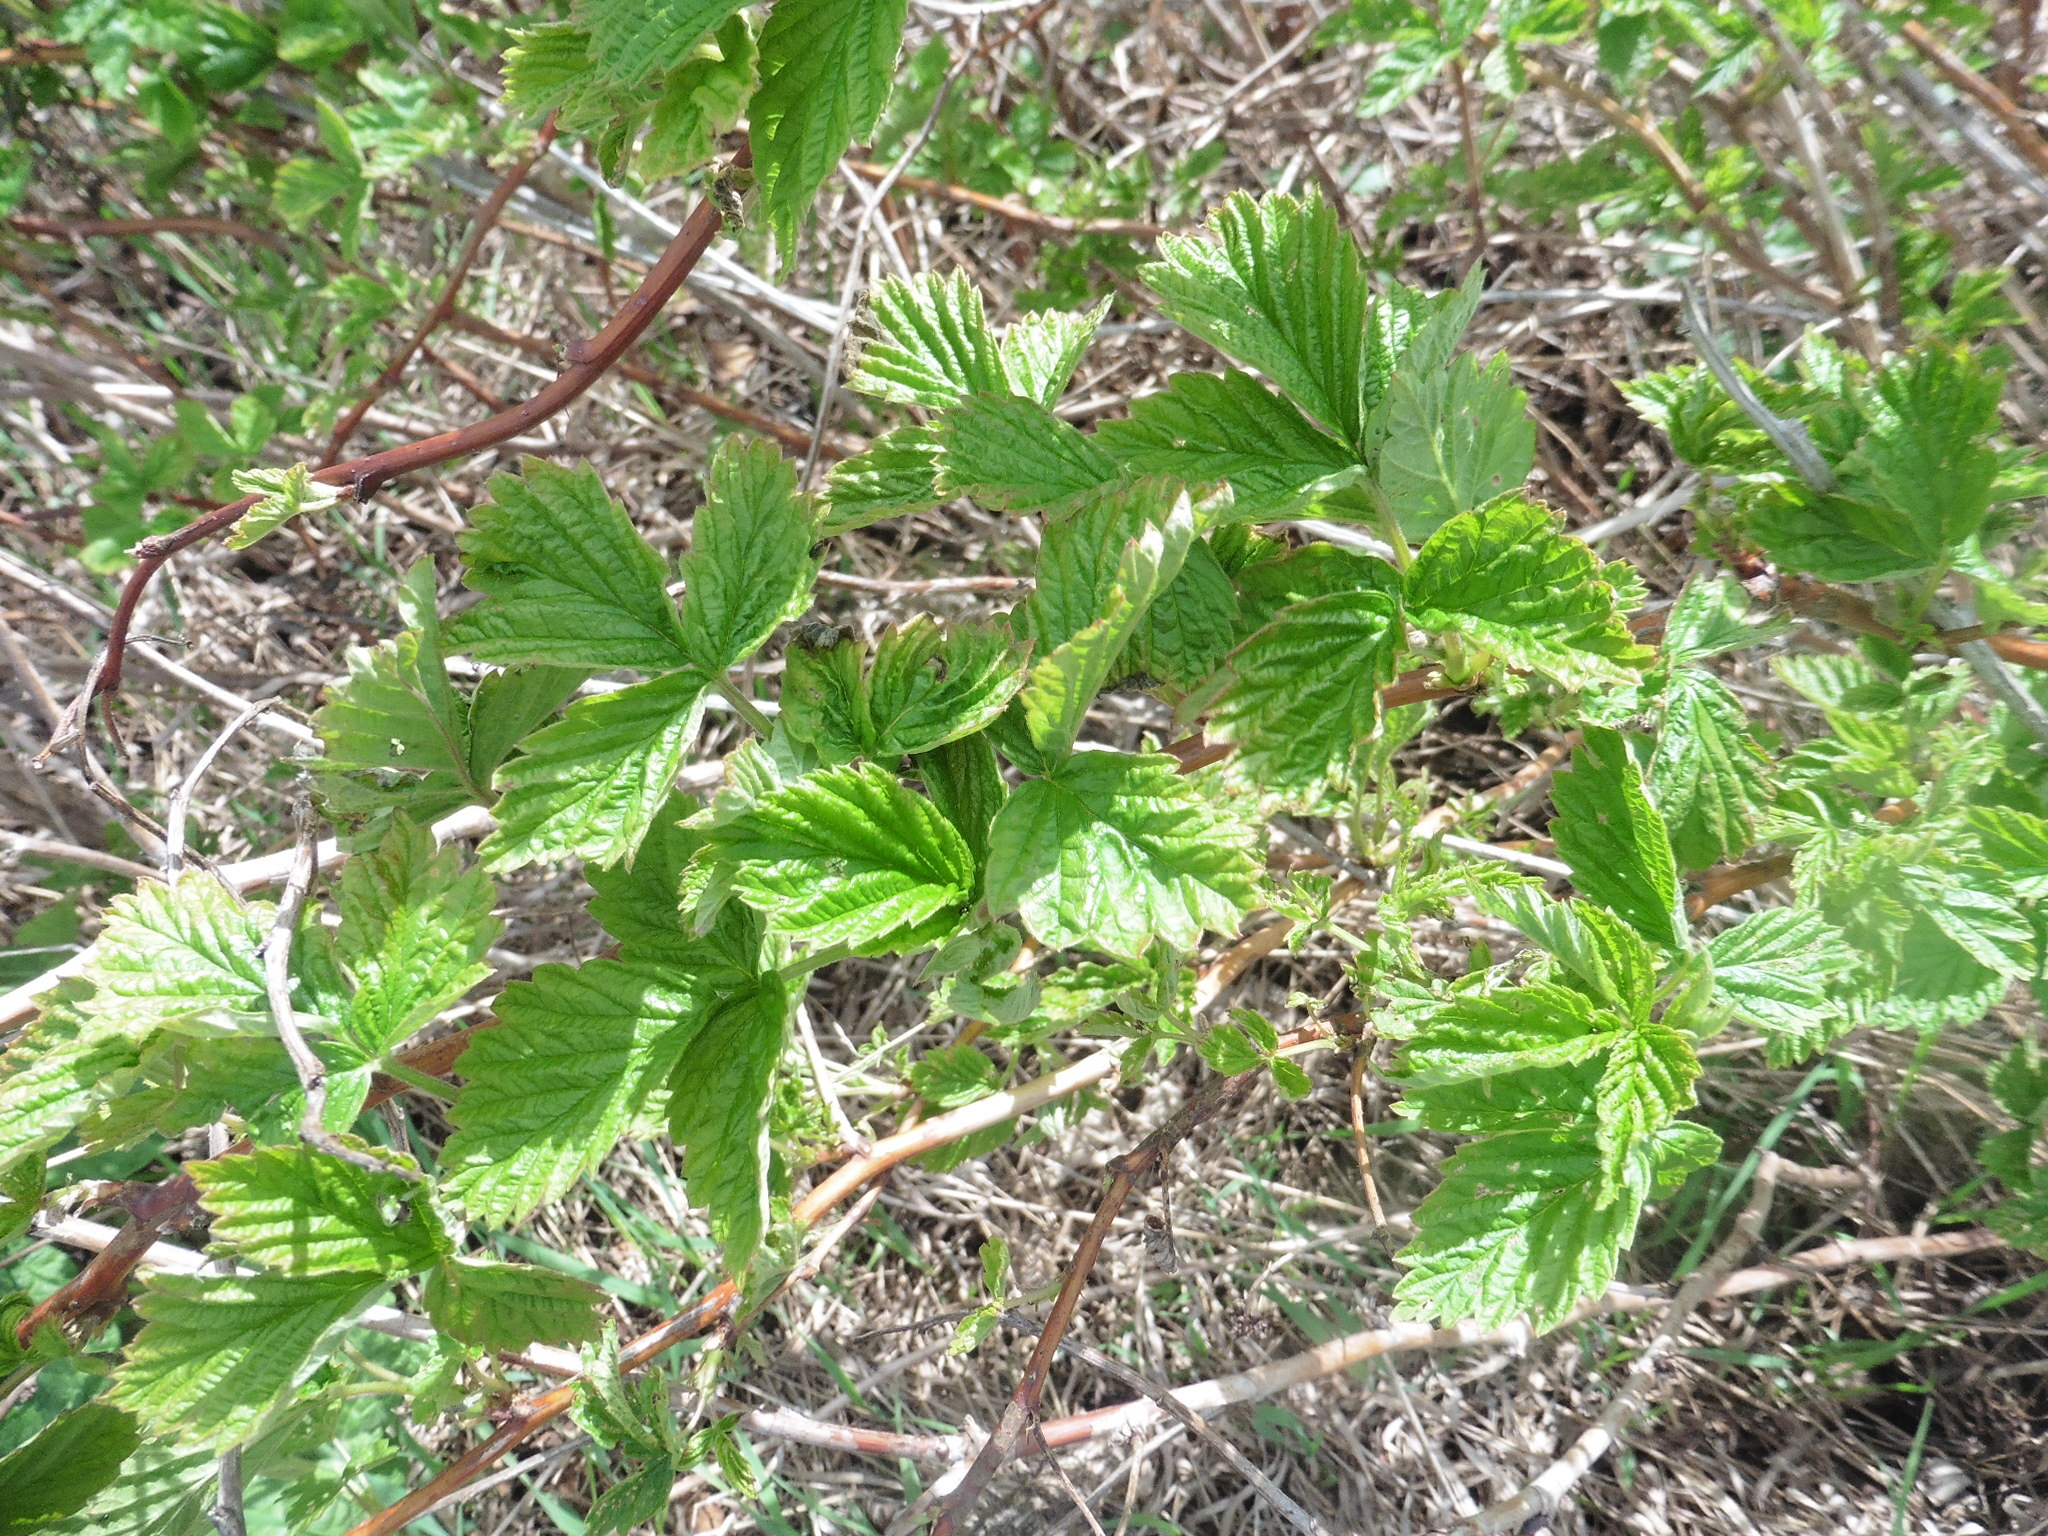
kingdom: Plantae
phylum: Tracheophyta
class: Magnoliopsida
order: Rosales
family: Rosaceae
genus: Rubus
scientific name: Rubus idaeus
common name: Raspberry
